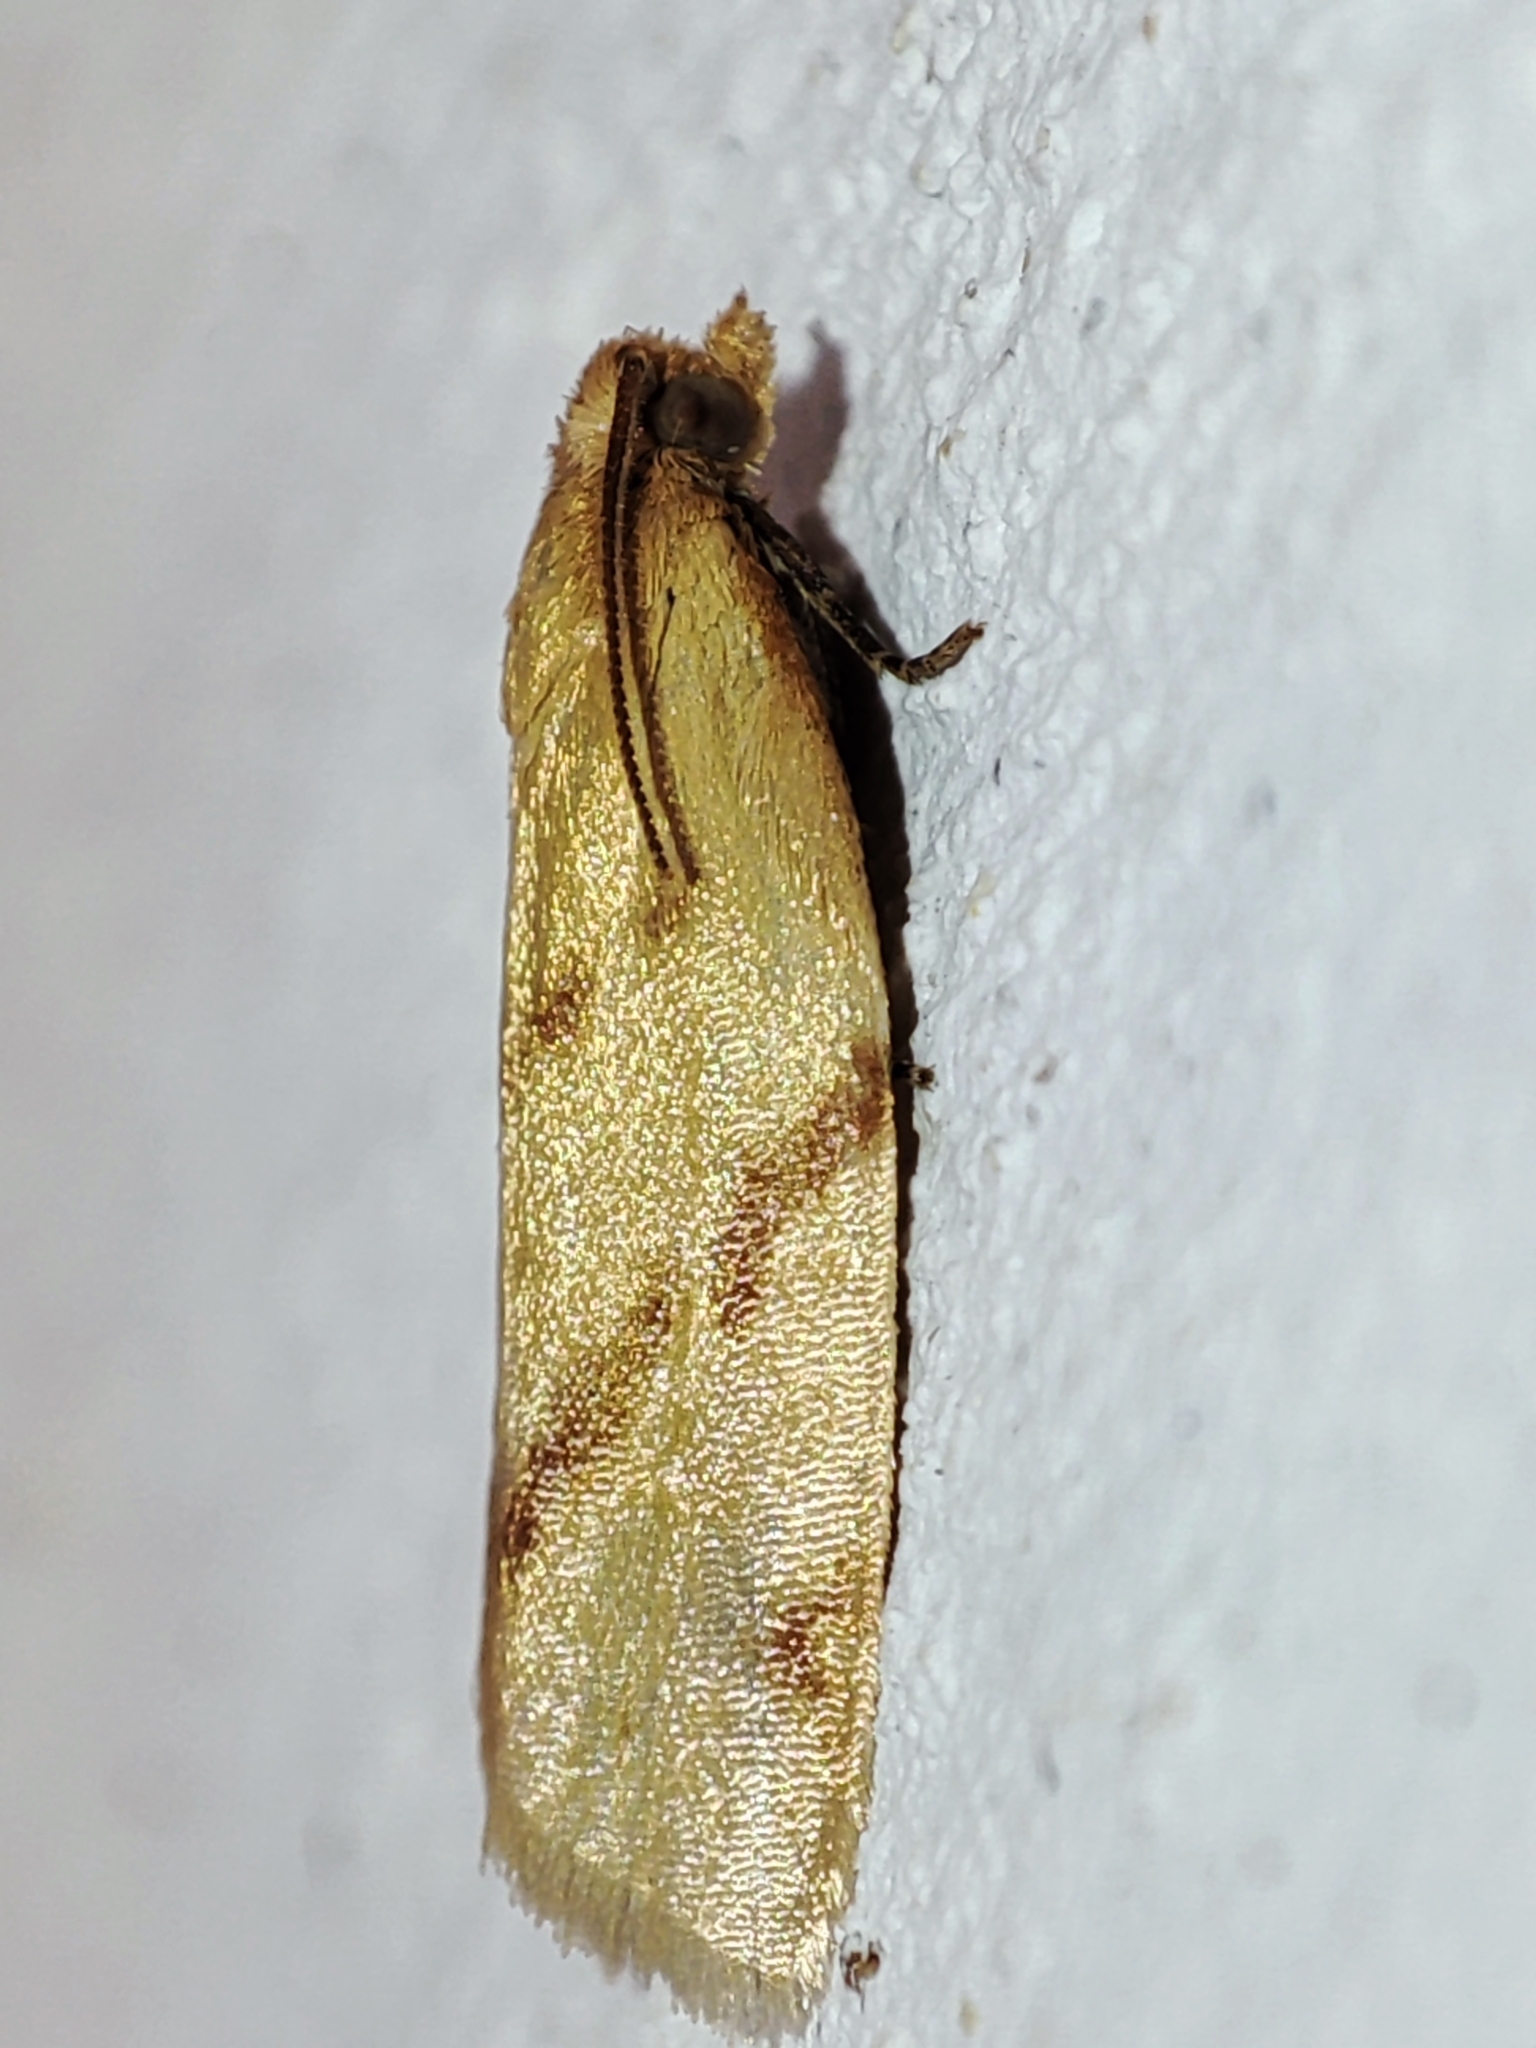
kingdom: Animalia
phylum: Arthropoda
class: Insecta
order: Lepidoptera
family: Tortricidae
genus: Clepsis
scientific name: Clepsis pallidana
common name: Sheep's-bit conch
